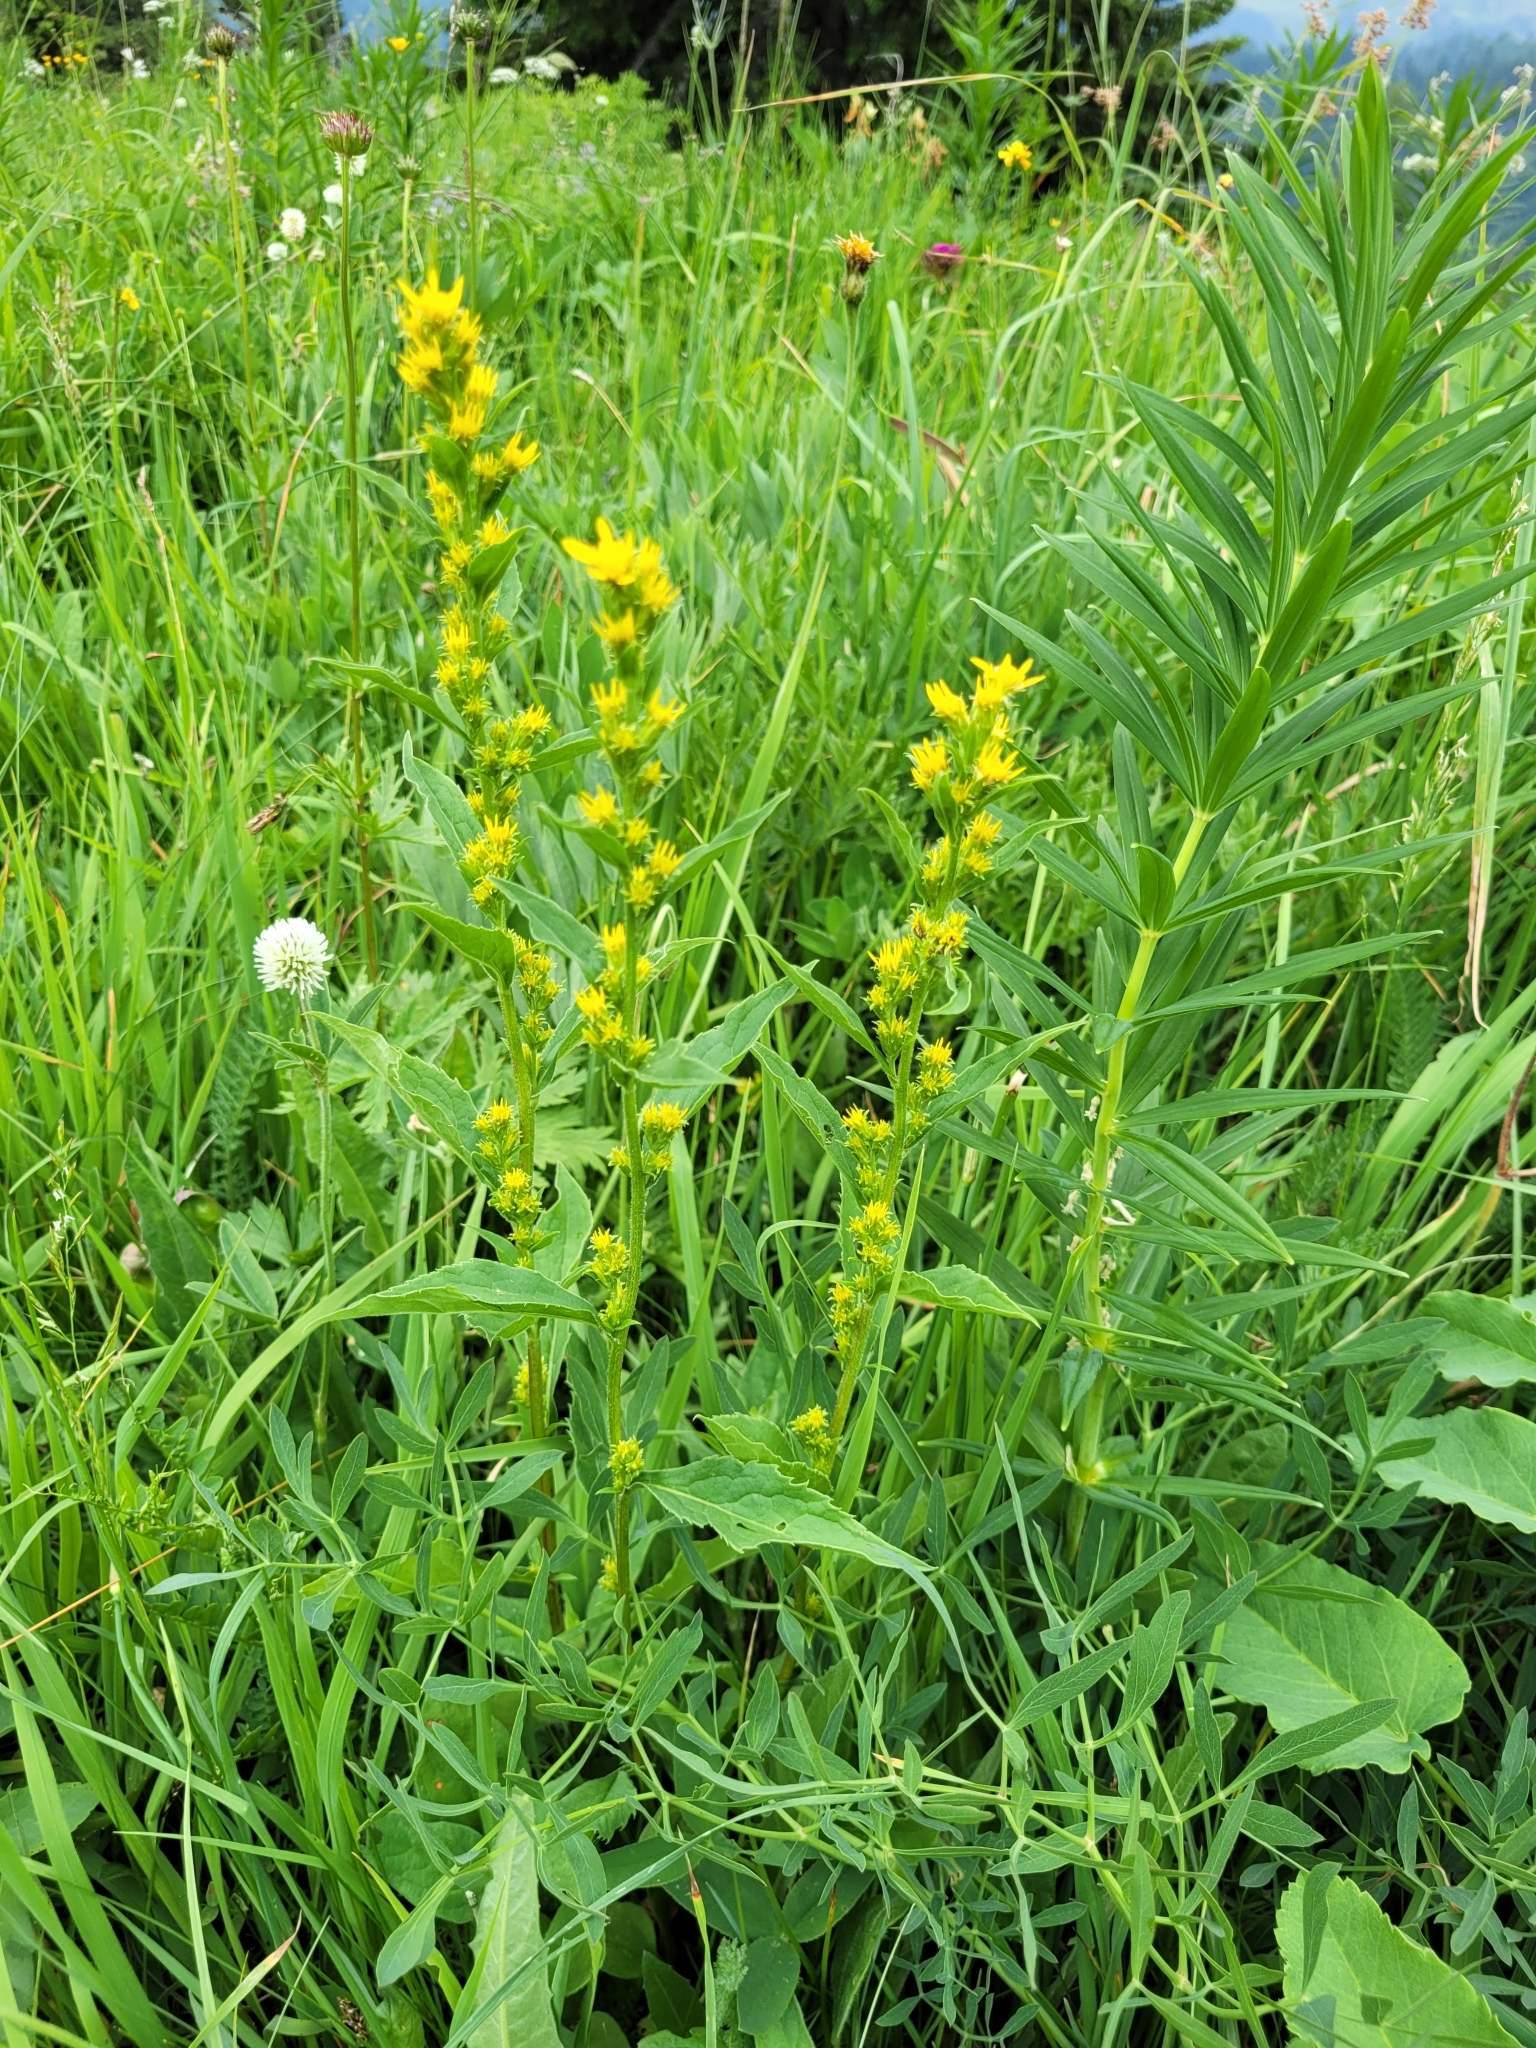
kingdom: Plantae
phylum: Tracheophyta
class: Magnoliopsida
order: Asterales
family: Asteraceae
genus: Solidago
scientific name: Solidago virgaurea
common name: Goldenrod
